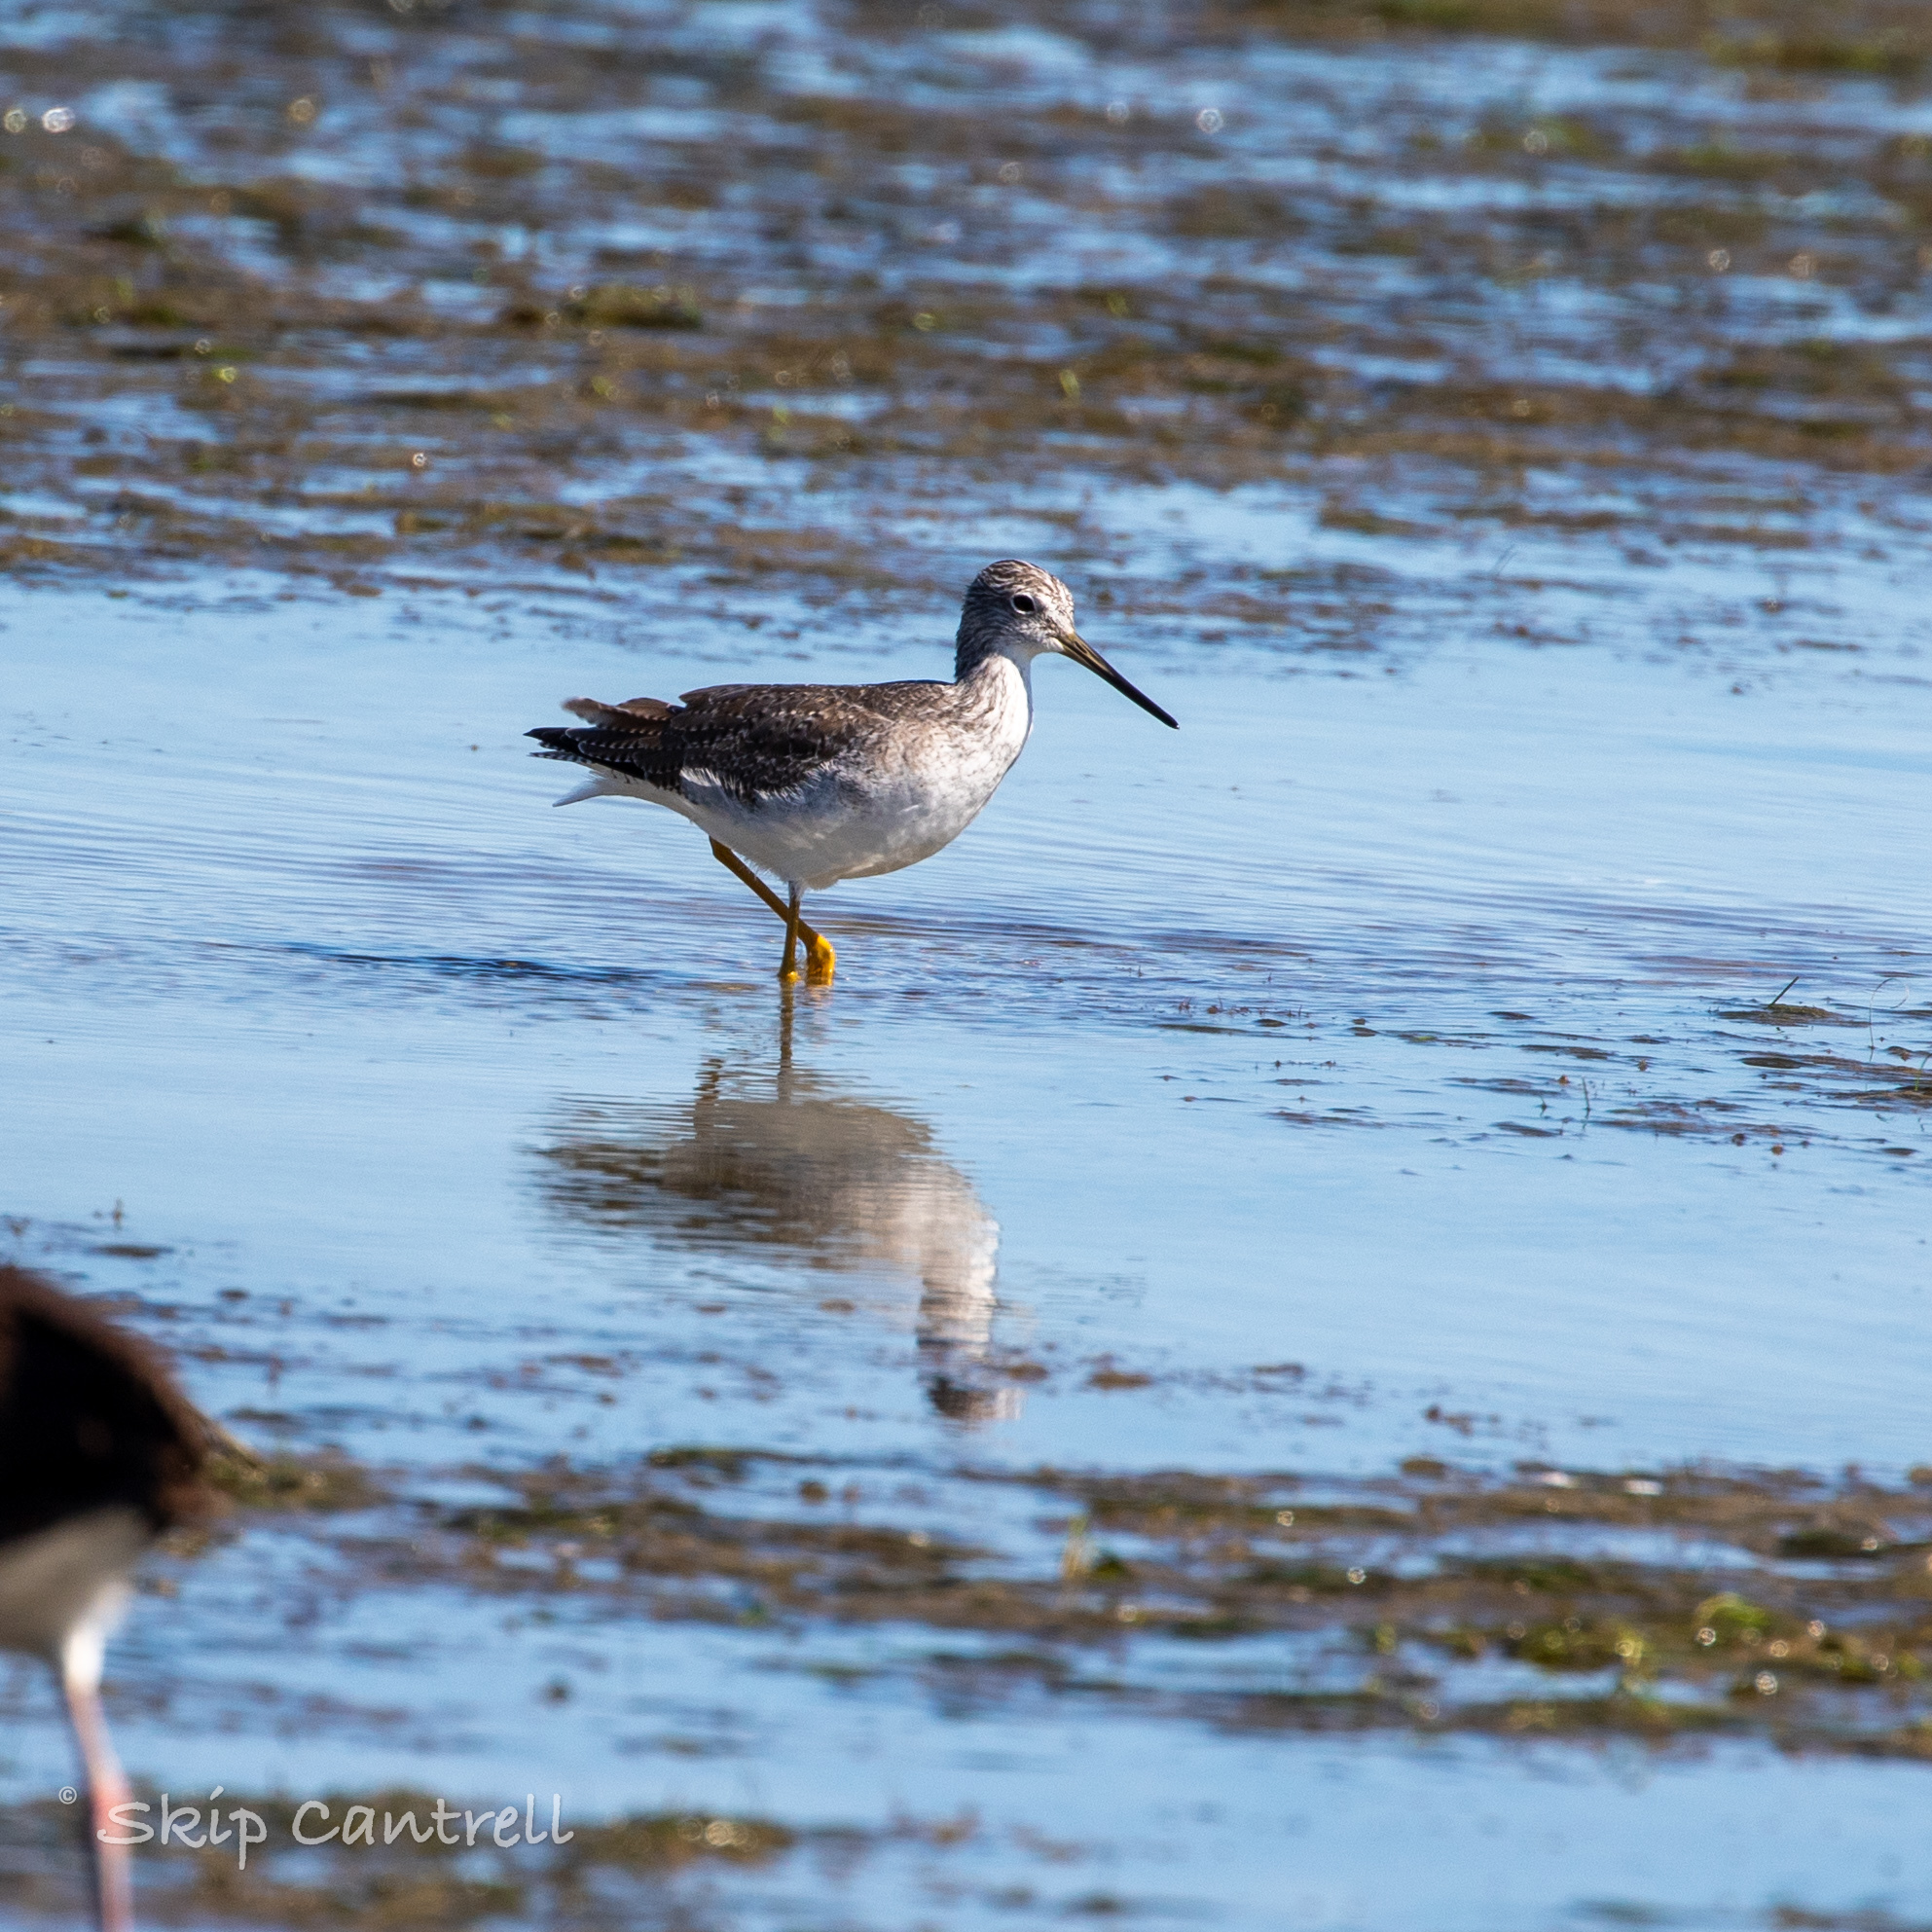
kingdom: Animalia
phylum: Chordata
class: Aves
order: Charadriiformes
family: Scolopacidae
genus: Tringa
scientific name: Tringa melanoleuca
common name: Greater yellowlegs
